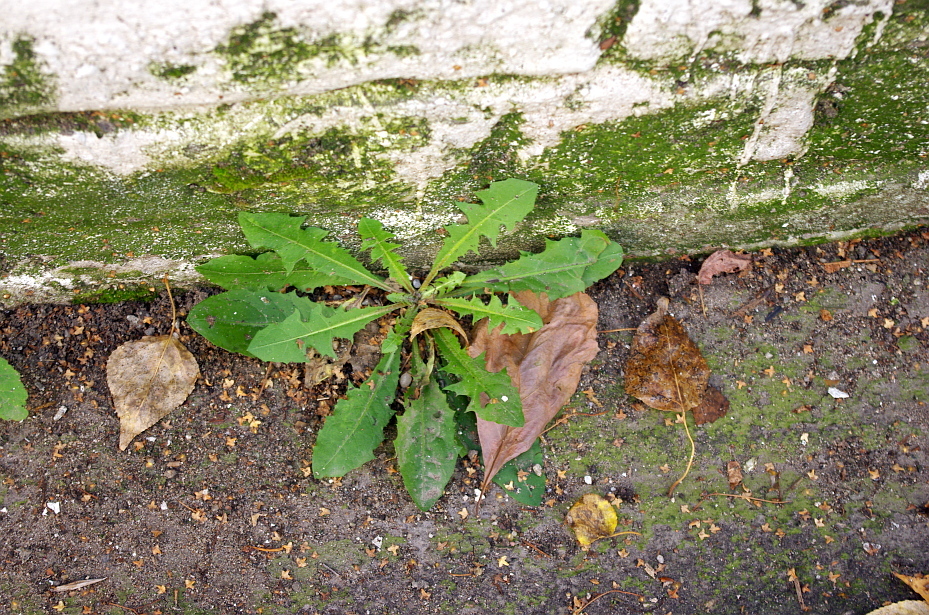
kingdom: Plantae
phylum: Tracheophyta
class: Magnoliopsida
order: Asterales
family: Asteraceae
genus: Taraxacum
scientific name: Taraxacum officinale
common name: Common dandelion
